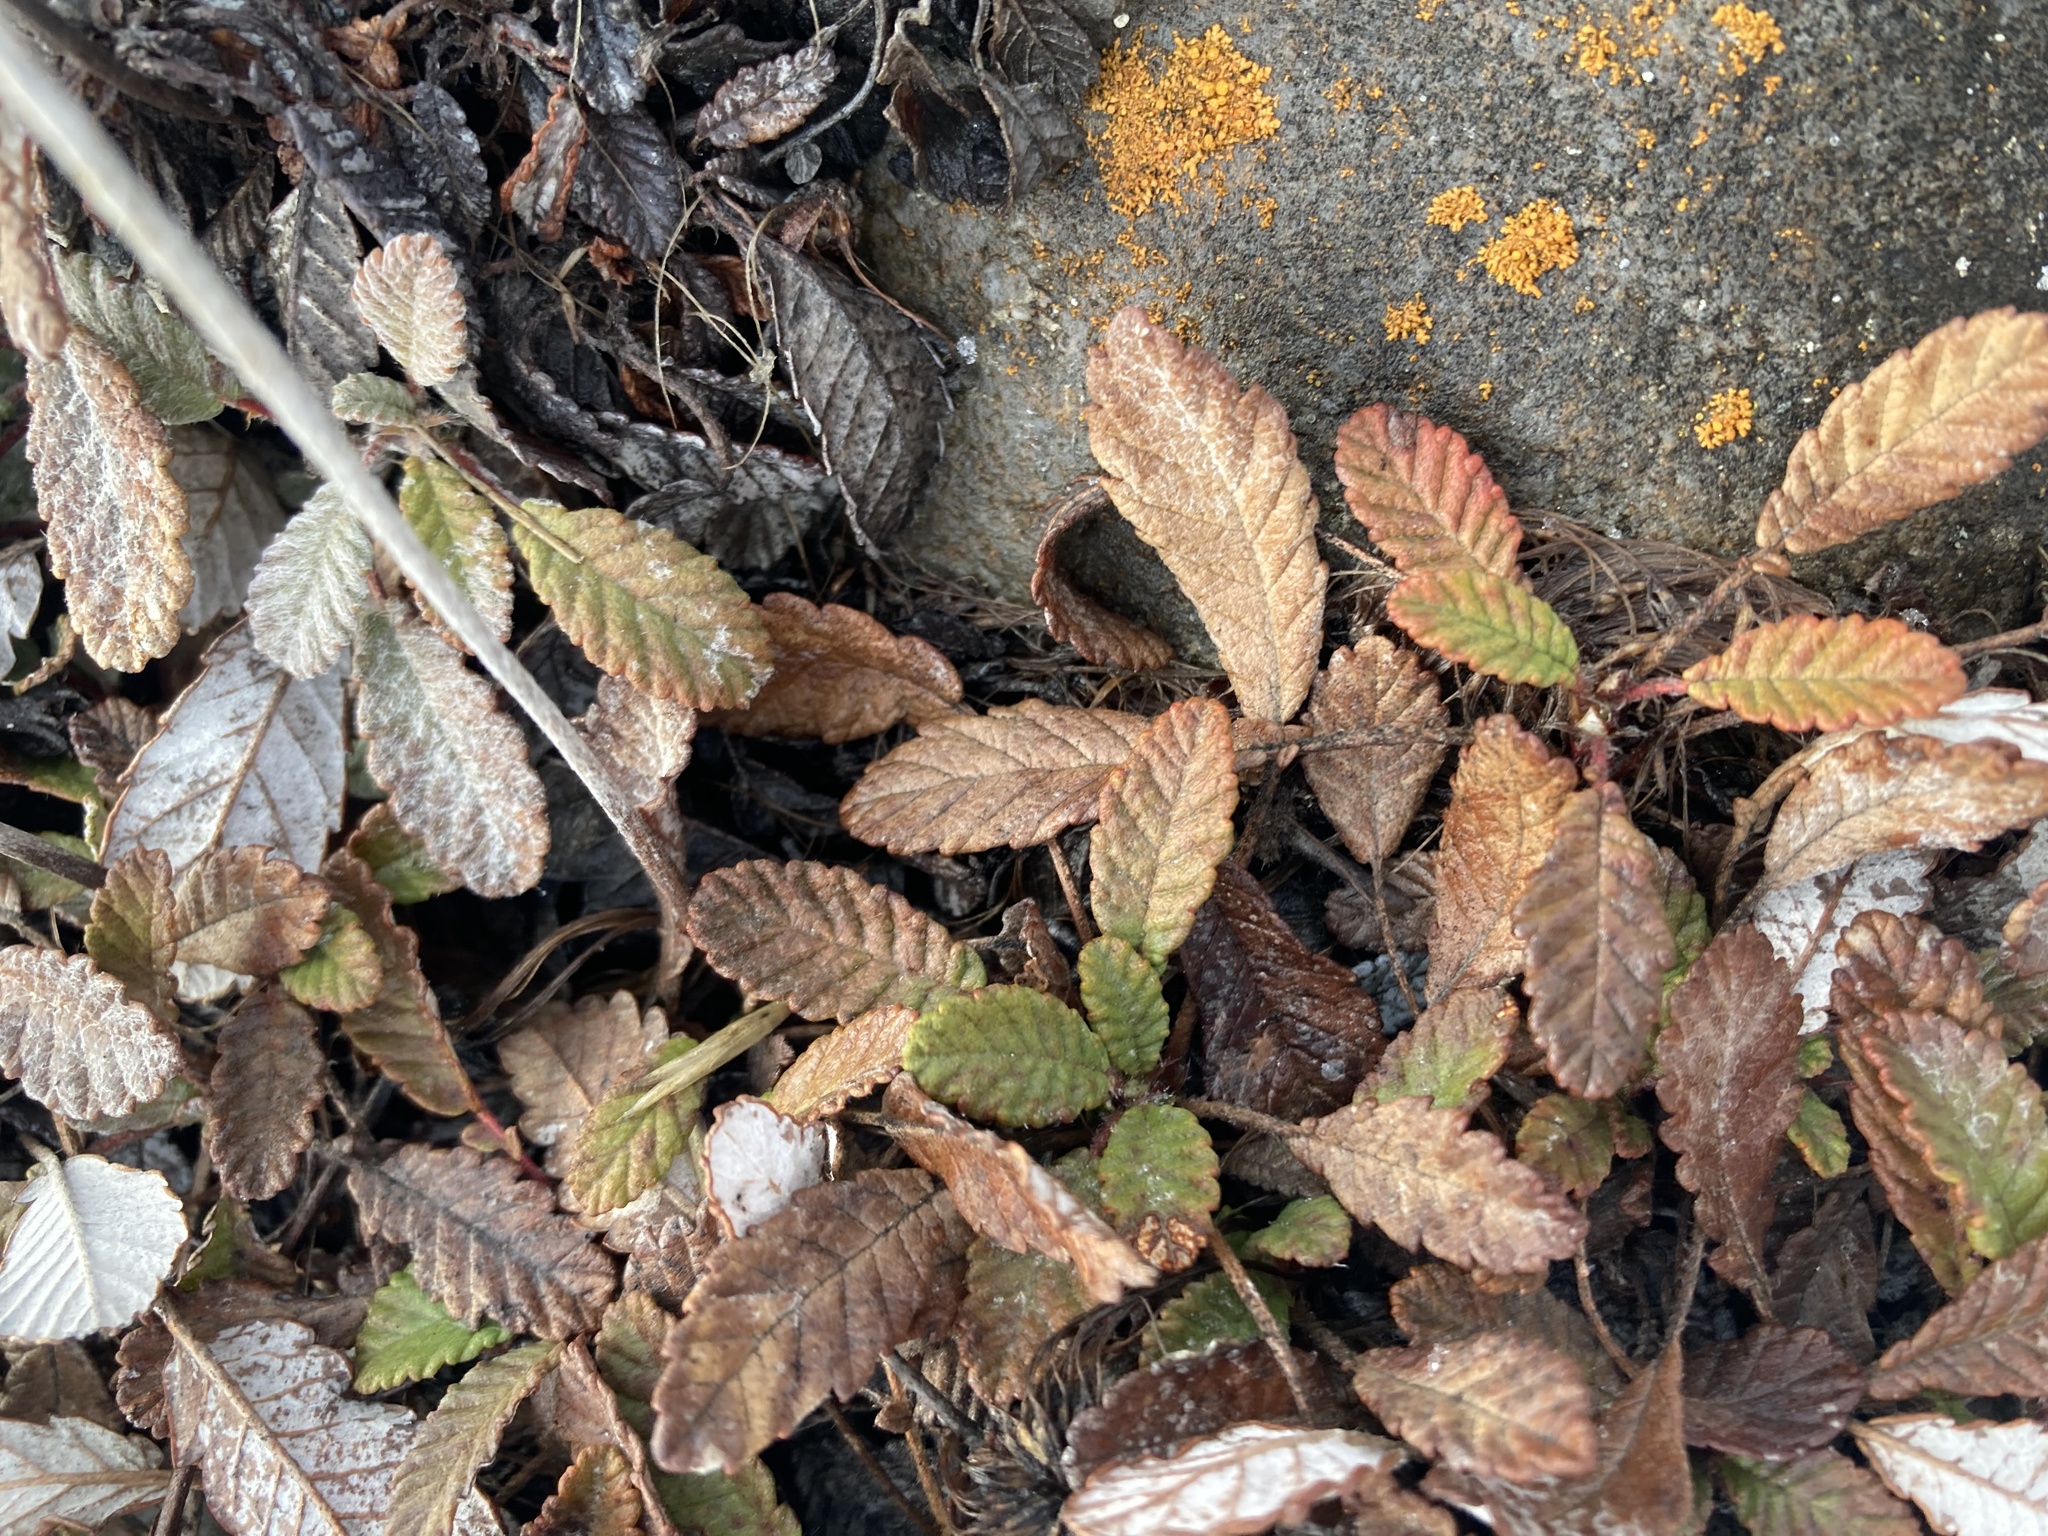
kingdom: Plantae
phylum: Tracheophyta
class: Magnoliopsida
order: Rosales
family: Rosaceae
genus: Dryas
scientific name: Dryas drummondii
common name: Drummond's dryad
